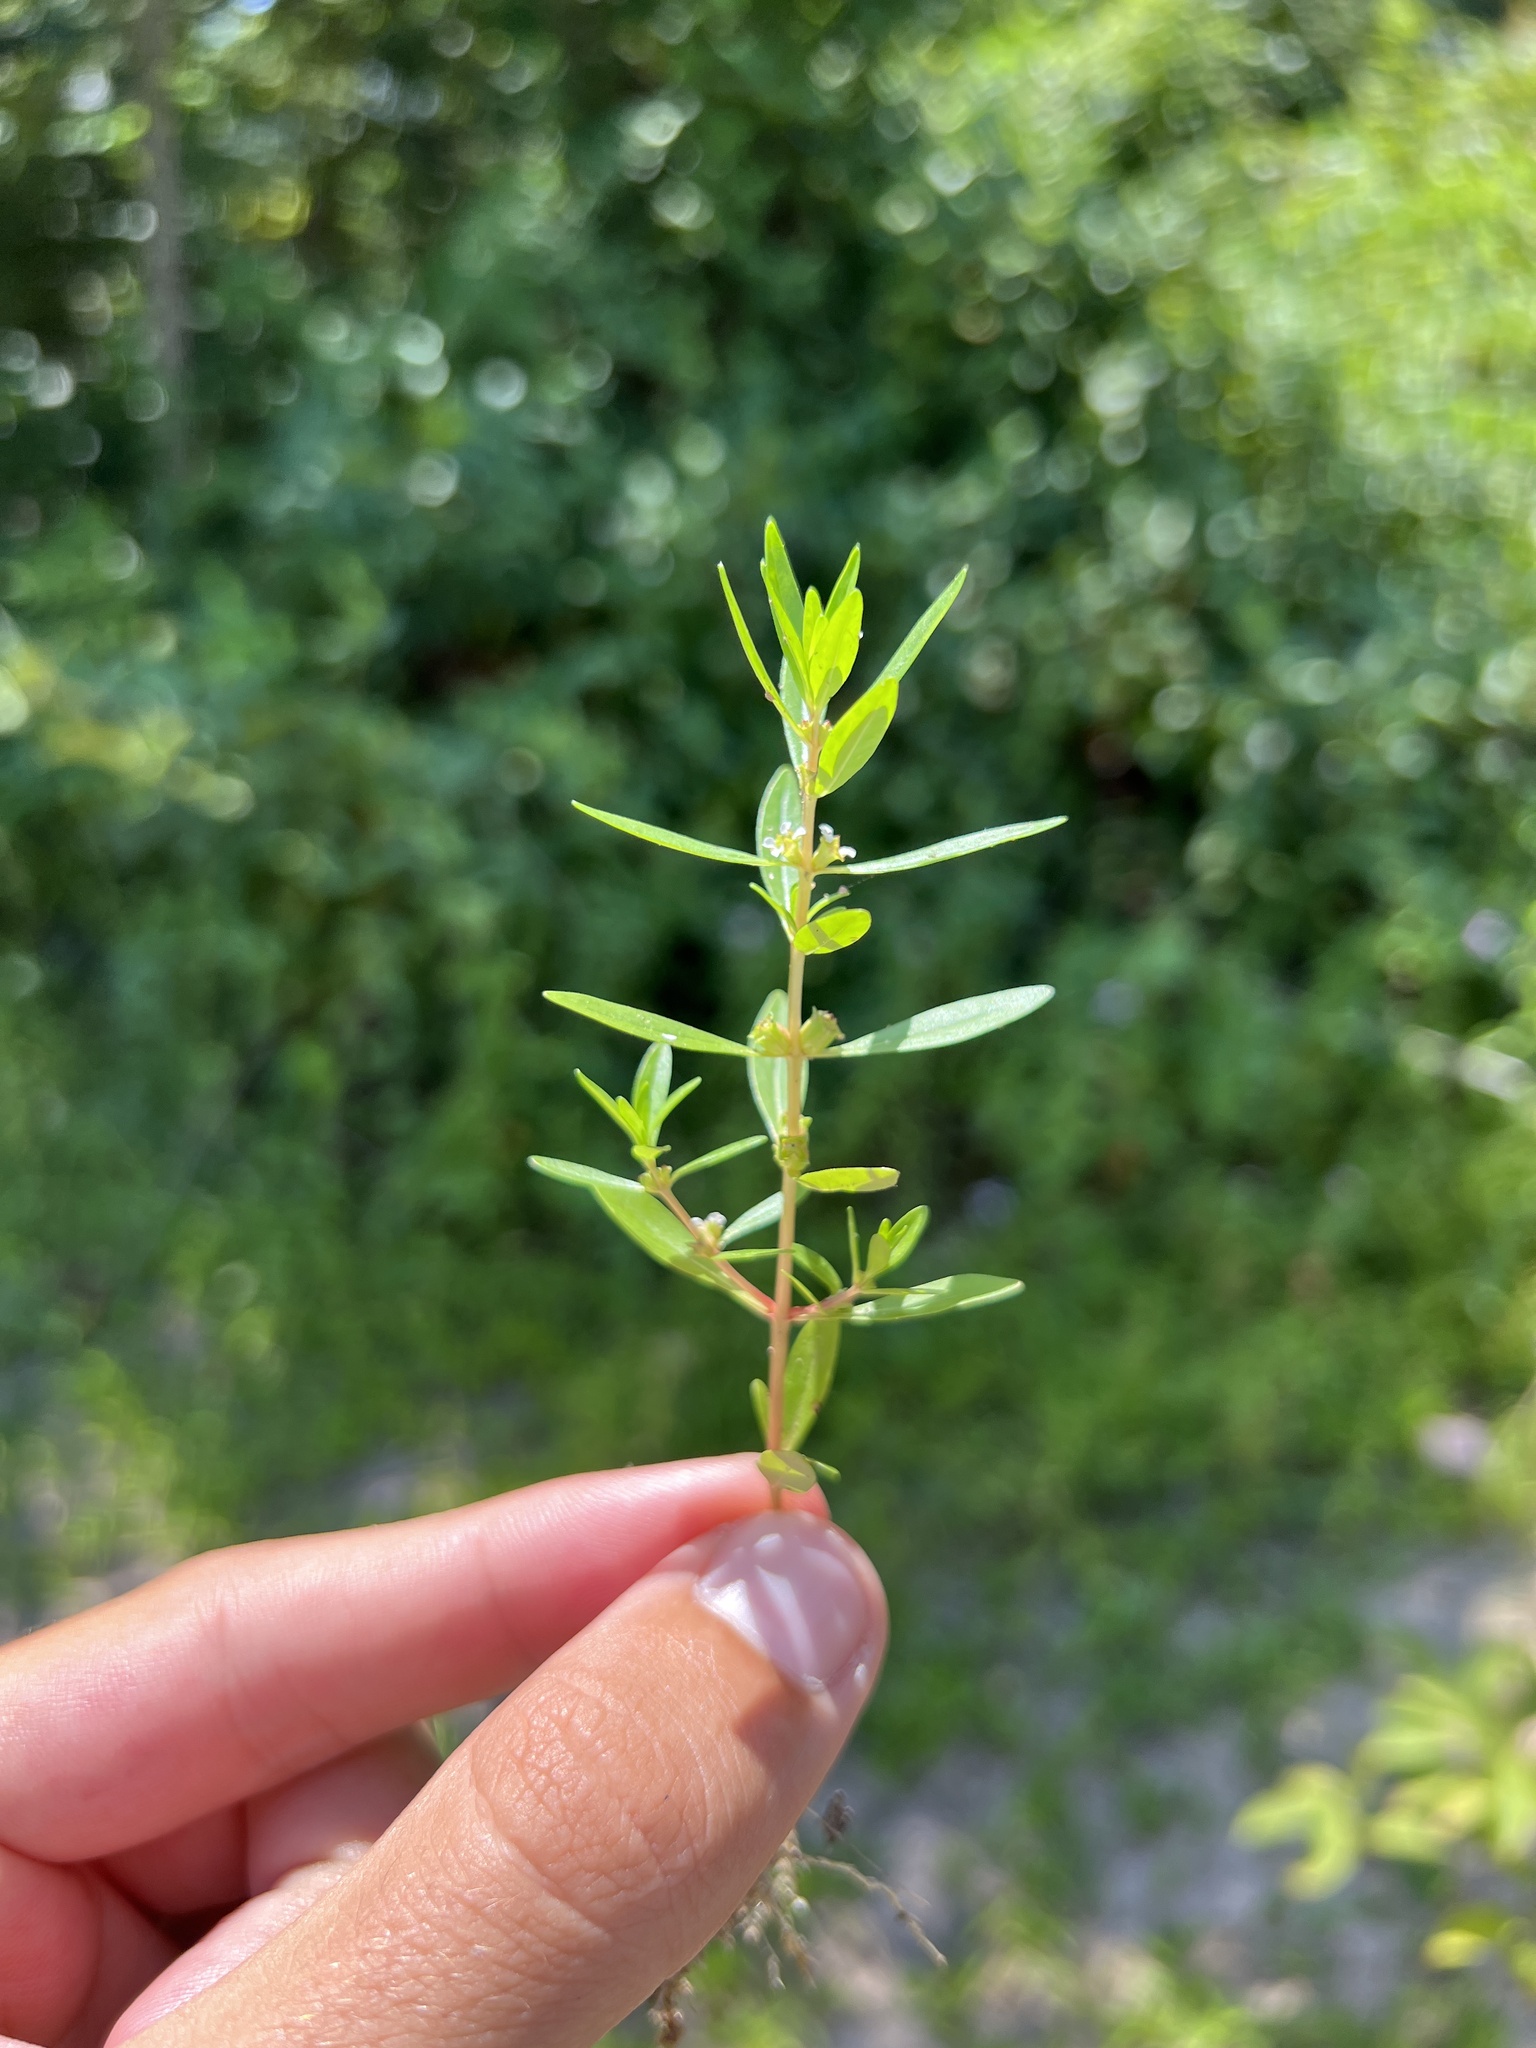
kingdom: Plantae
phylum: Tracheophyta
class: Magnoliopsida
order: Myrtales
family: Lythraceae
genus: Rotala
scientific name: Rotala ramosior
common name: Lowland rotala
